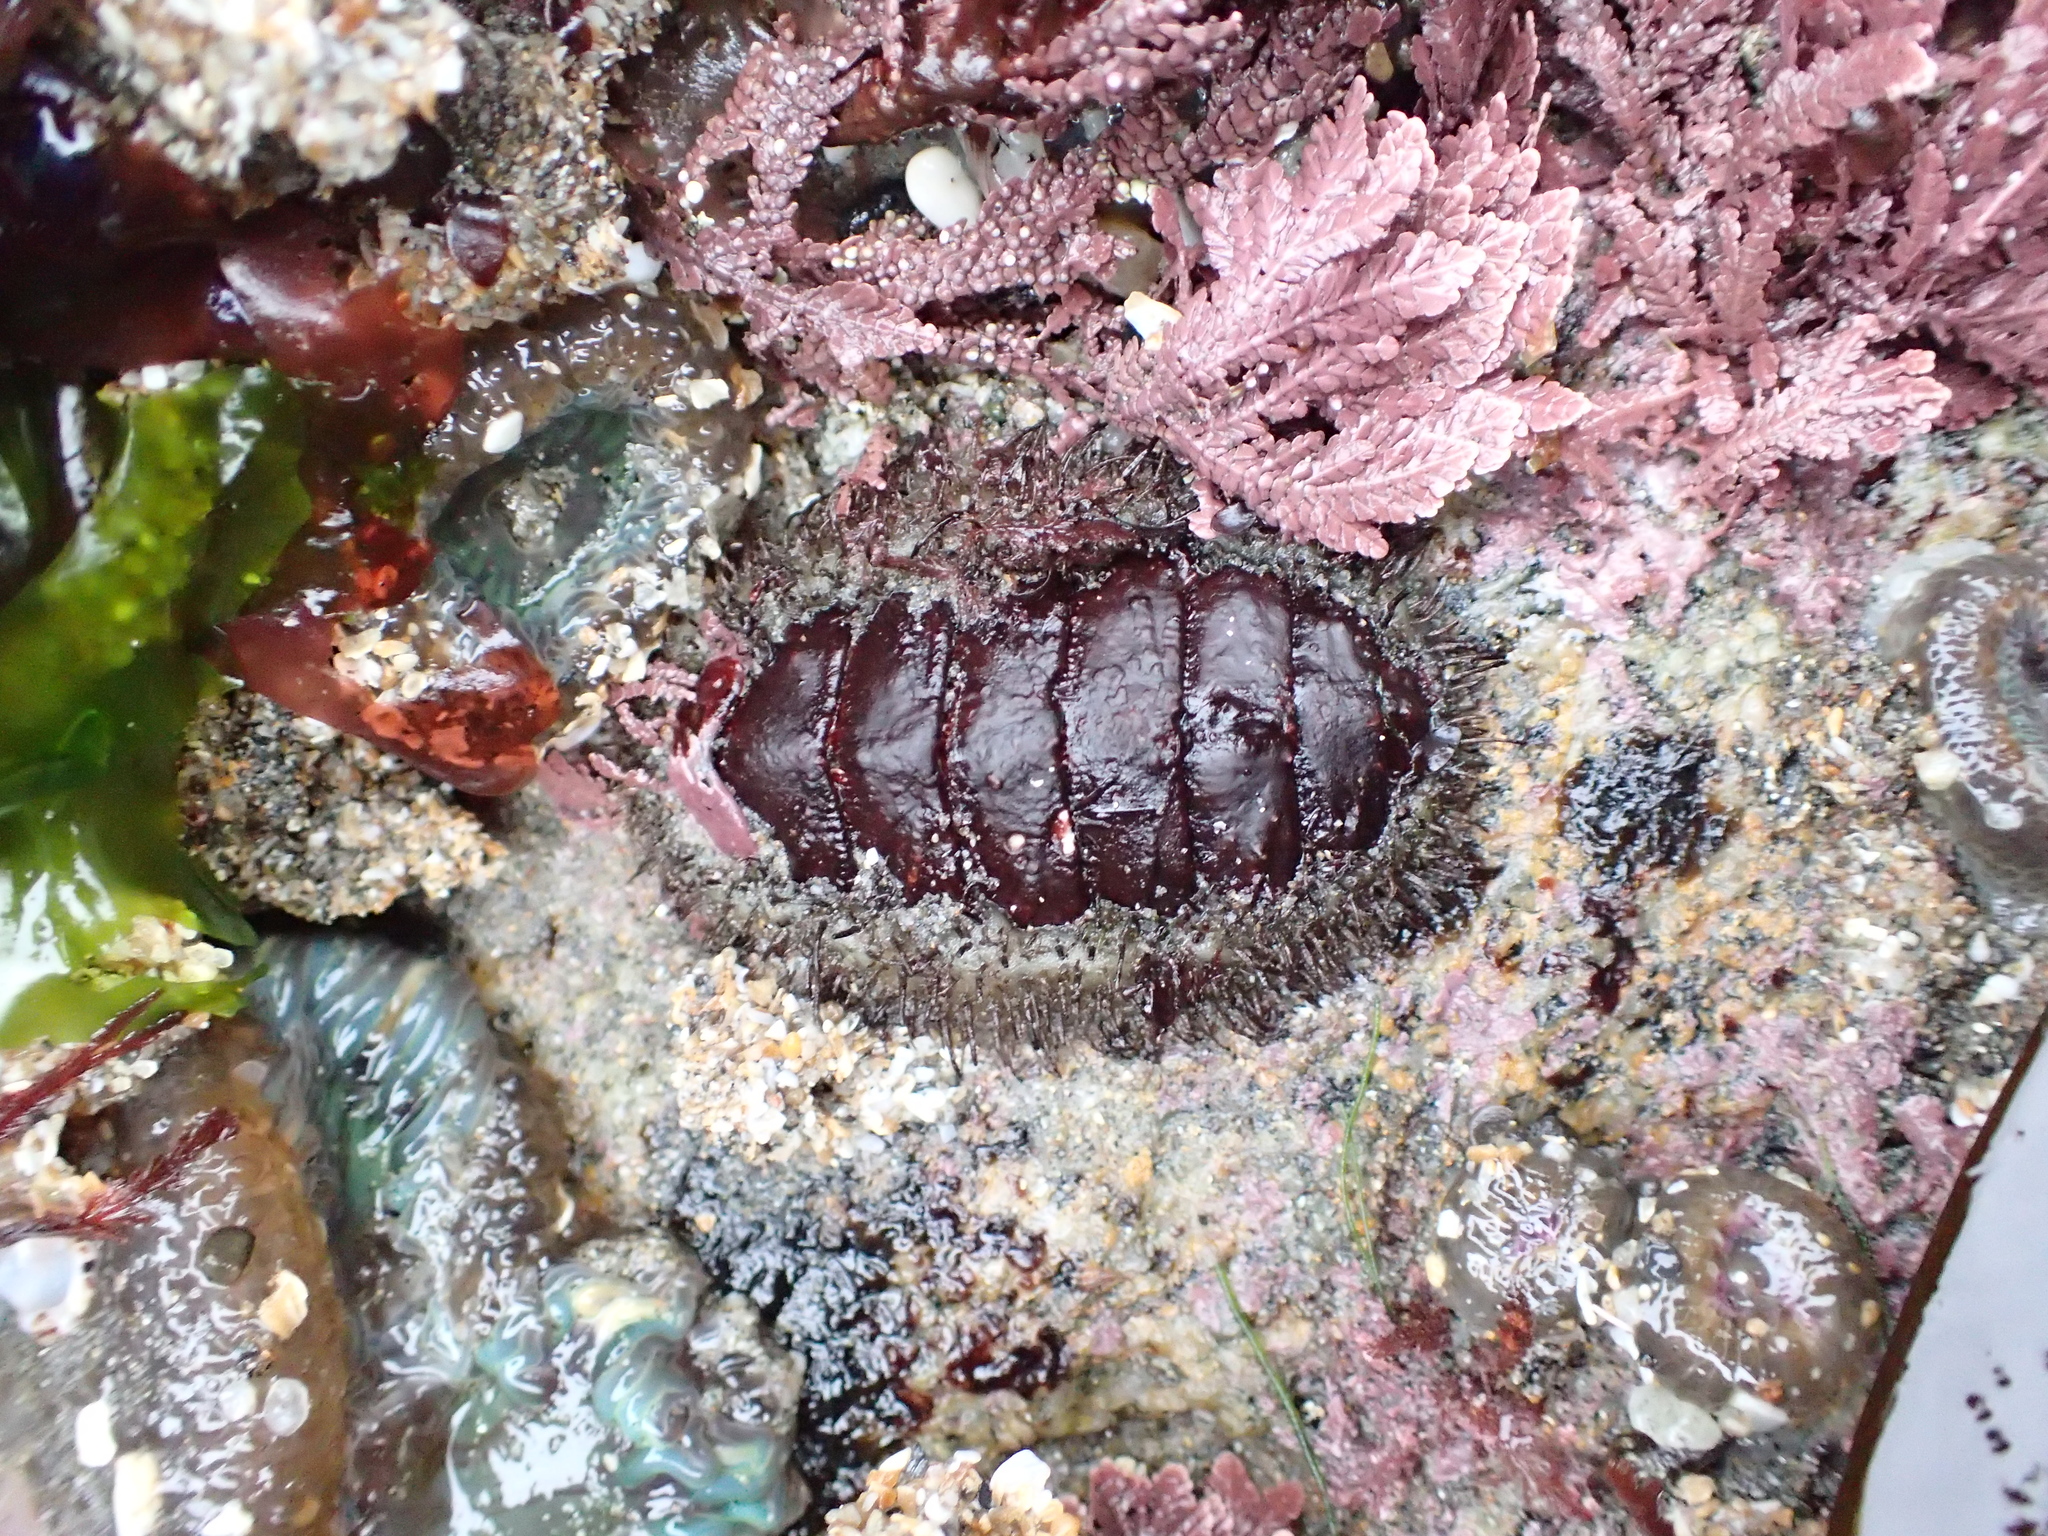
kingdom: Animalia
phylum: Mollusca
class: Polyplacophora
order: Chitonida
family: Mopaliidae
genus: Mopalia
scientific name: Mopalia muscosa
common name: Mossy chiton
